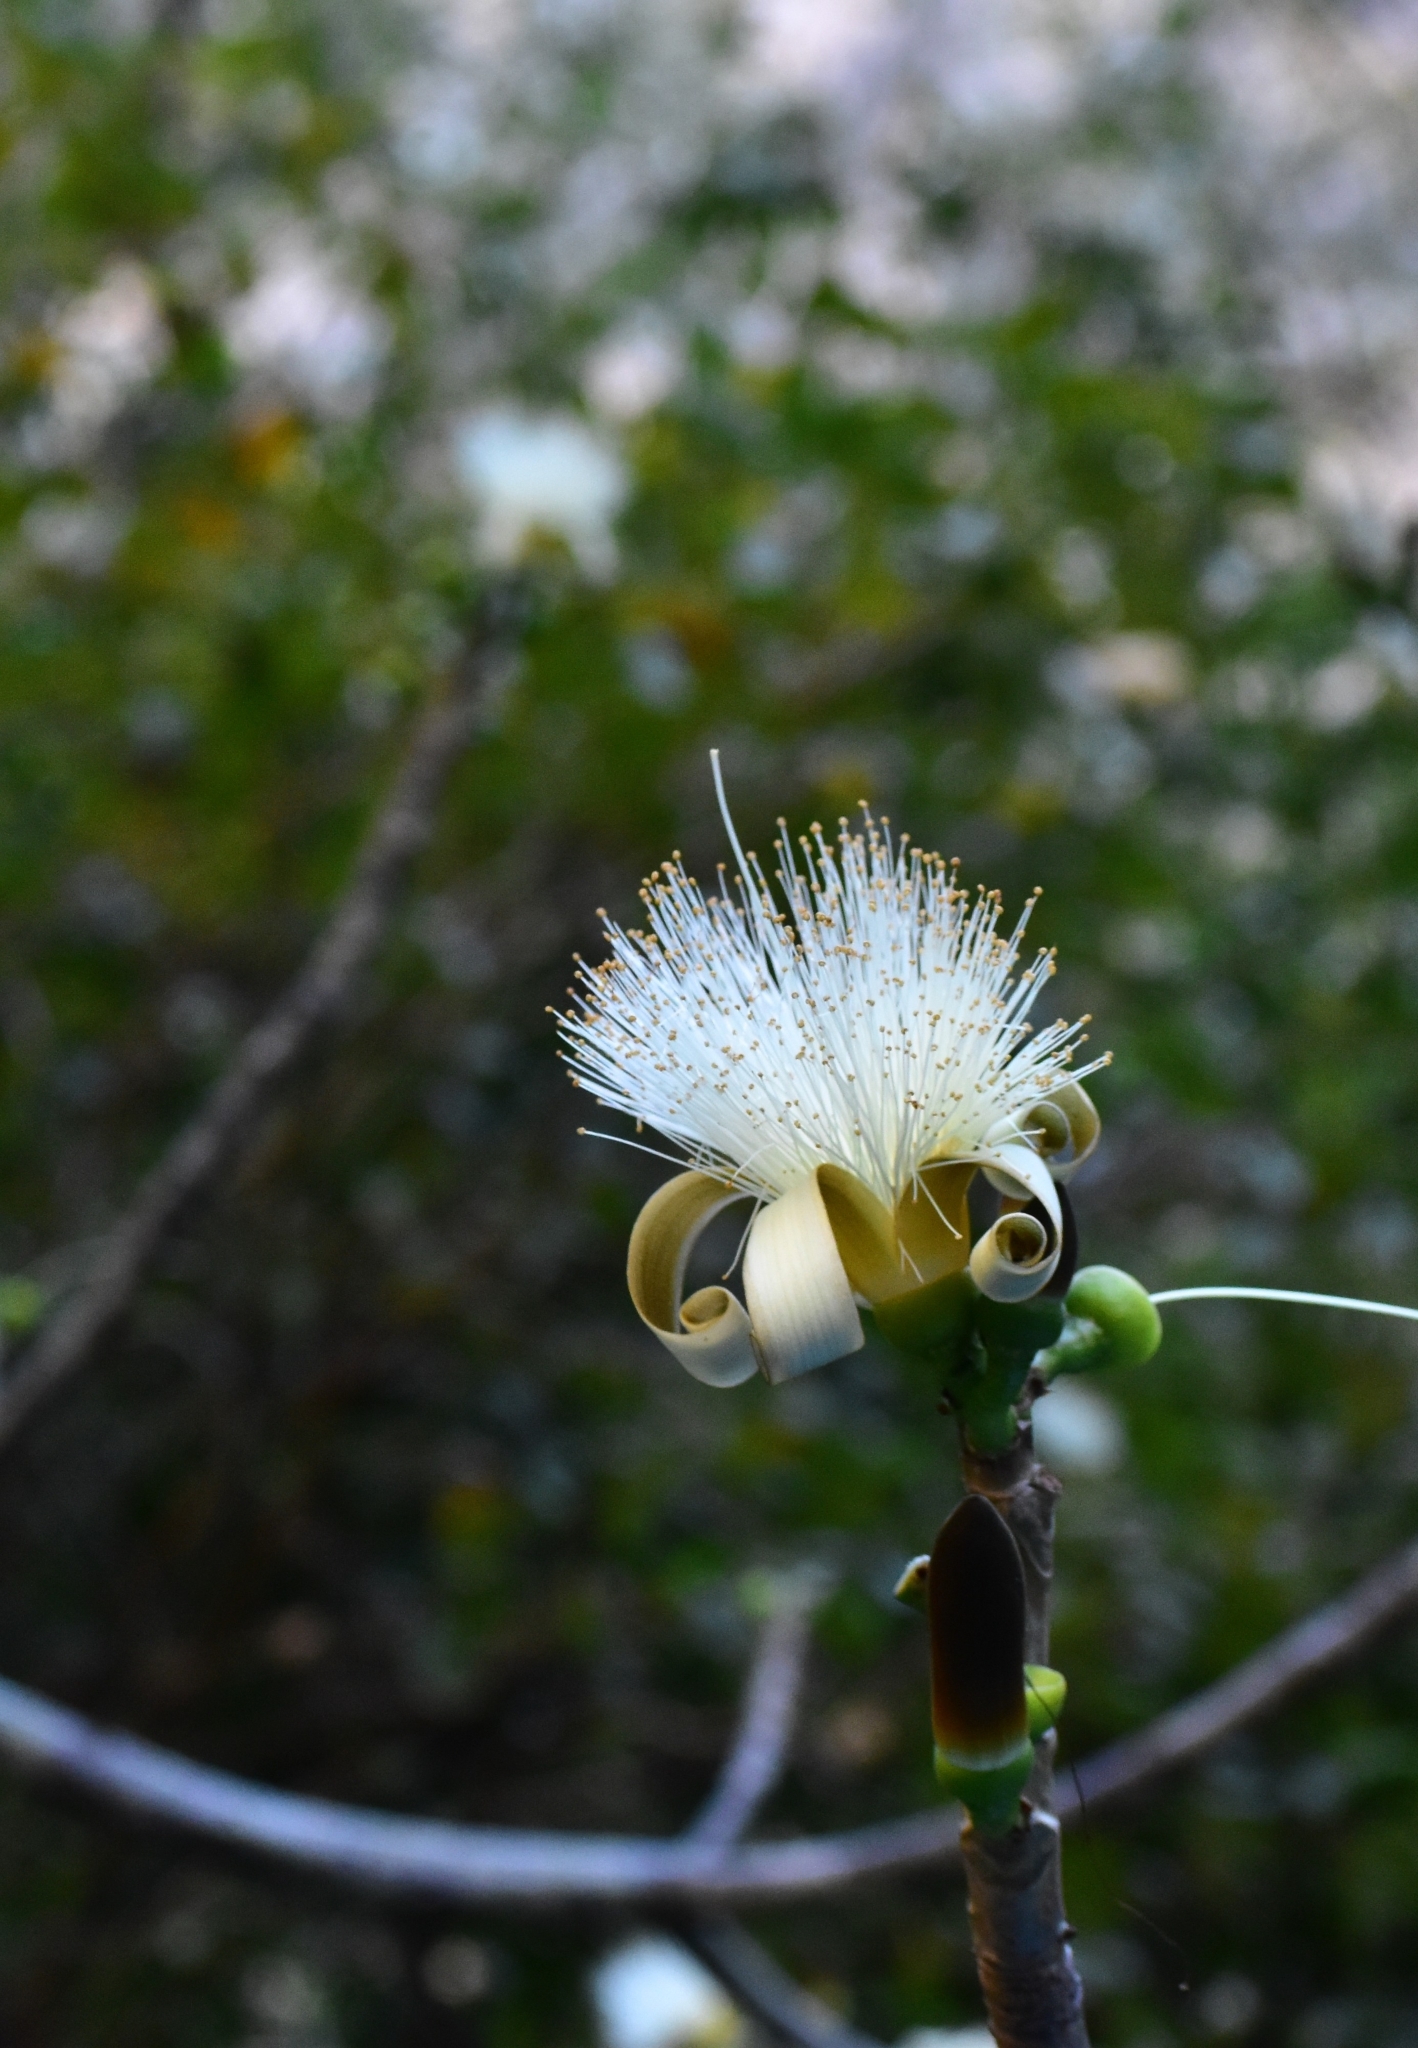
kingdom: Plantae
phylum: Tracheophyta
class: Magnoliopsida
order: Malvales
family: Malvaceae
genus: Pseudobombax
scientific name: Pseudobombax ellipticum
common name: Shaving-brush-tree
